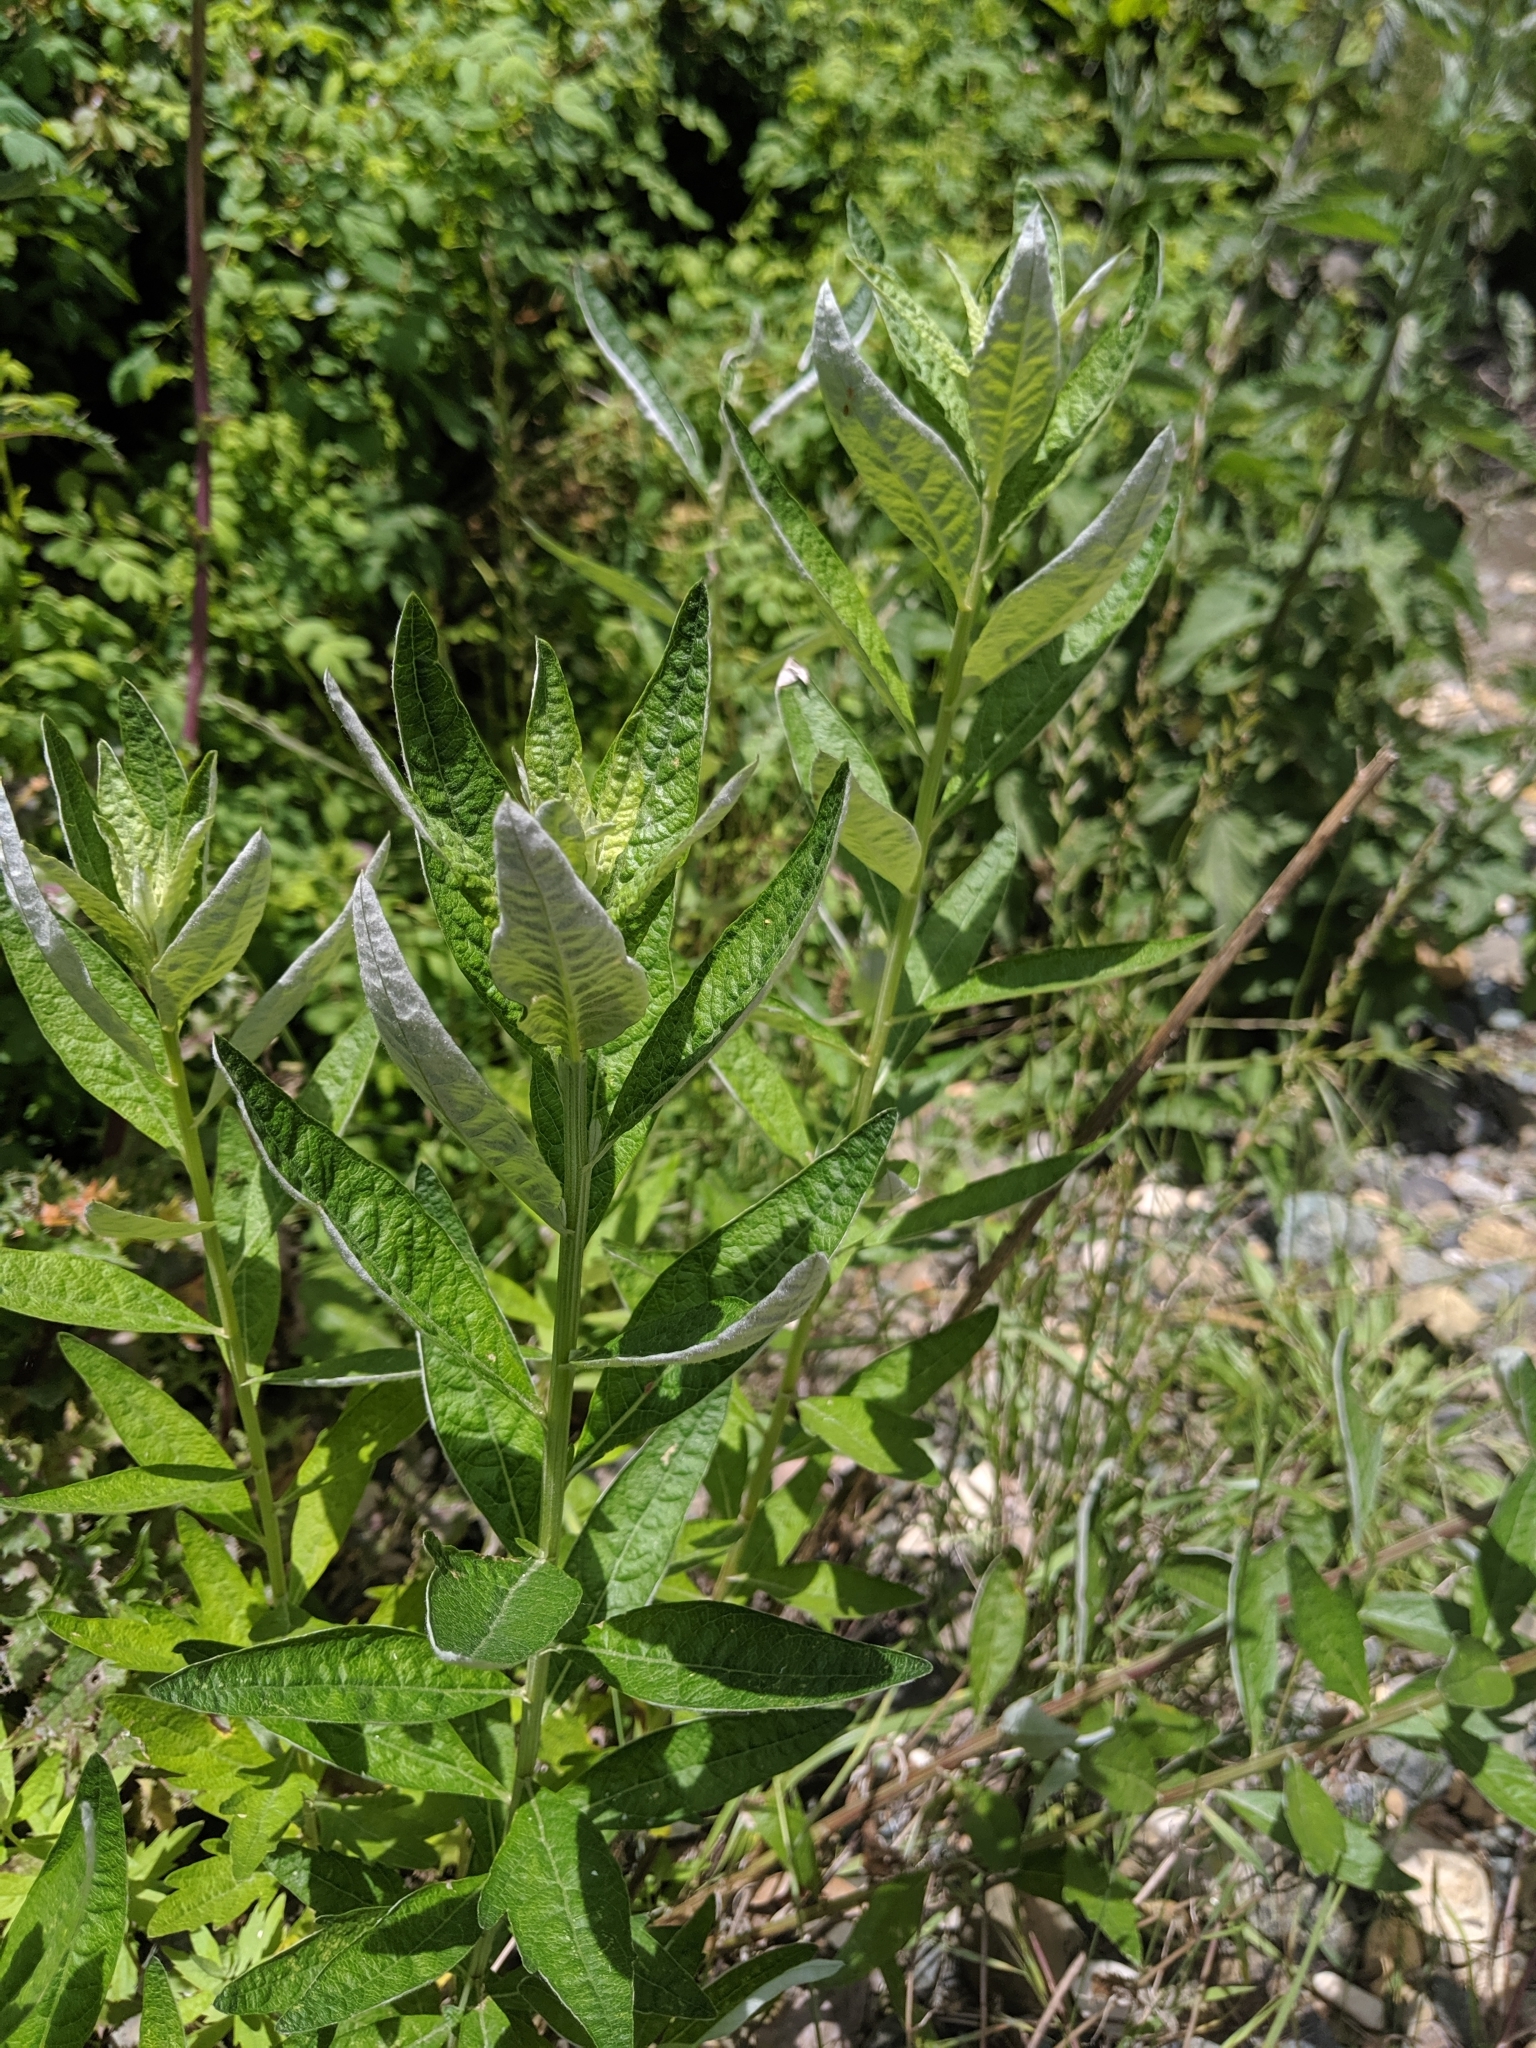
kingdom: Plantae
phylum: Tracheophyta
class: Magnoliopsida
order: Asterales
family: Asteraceae
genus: Artemisia
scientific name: Artemisia douglasiana
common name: Northwest mugwort
